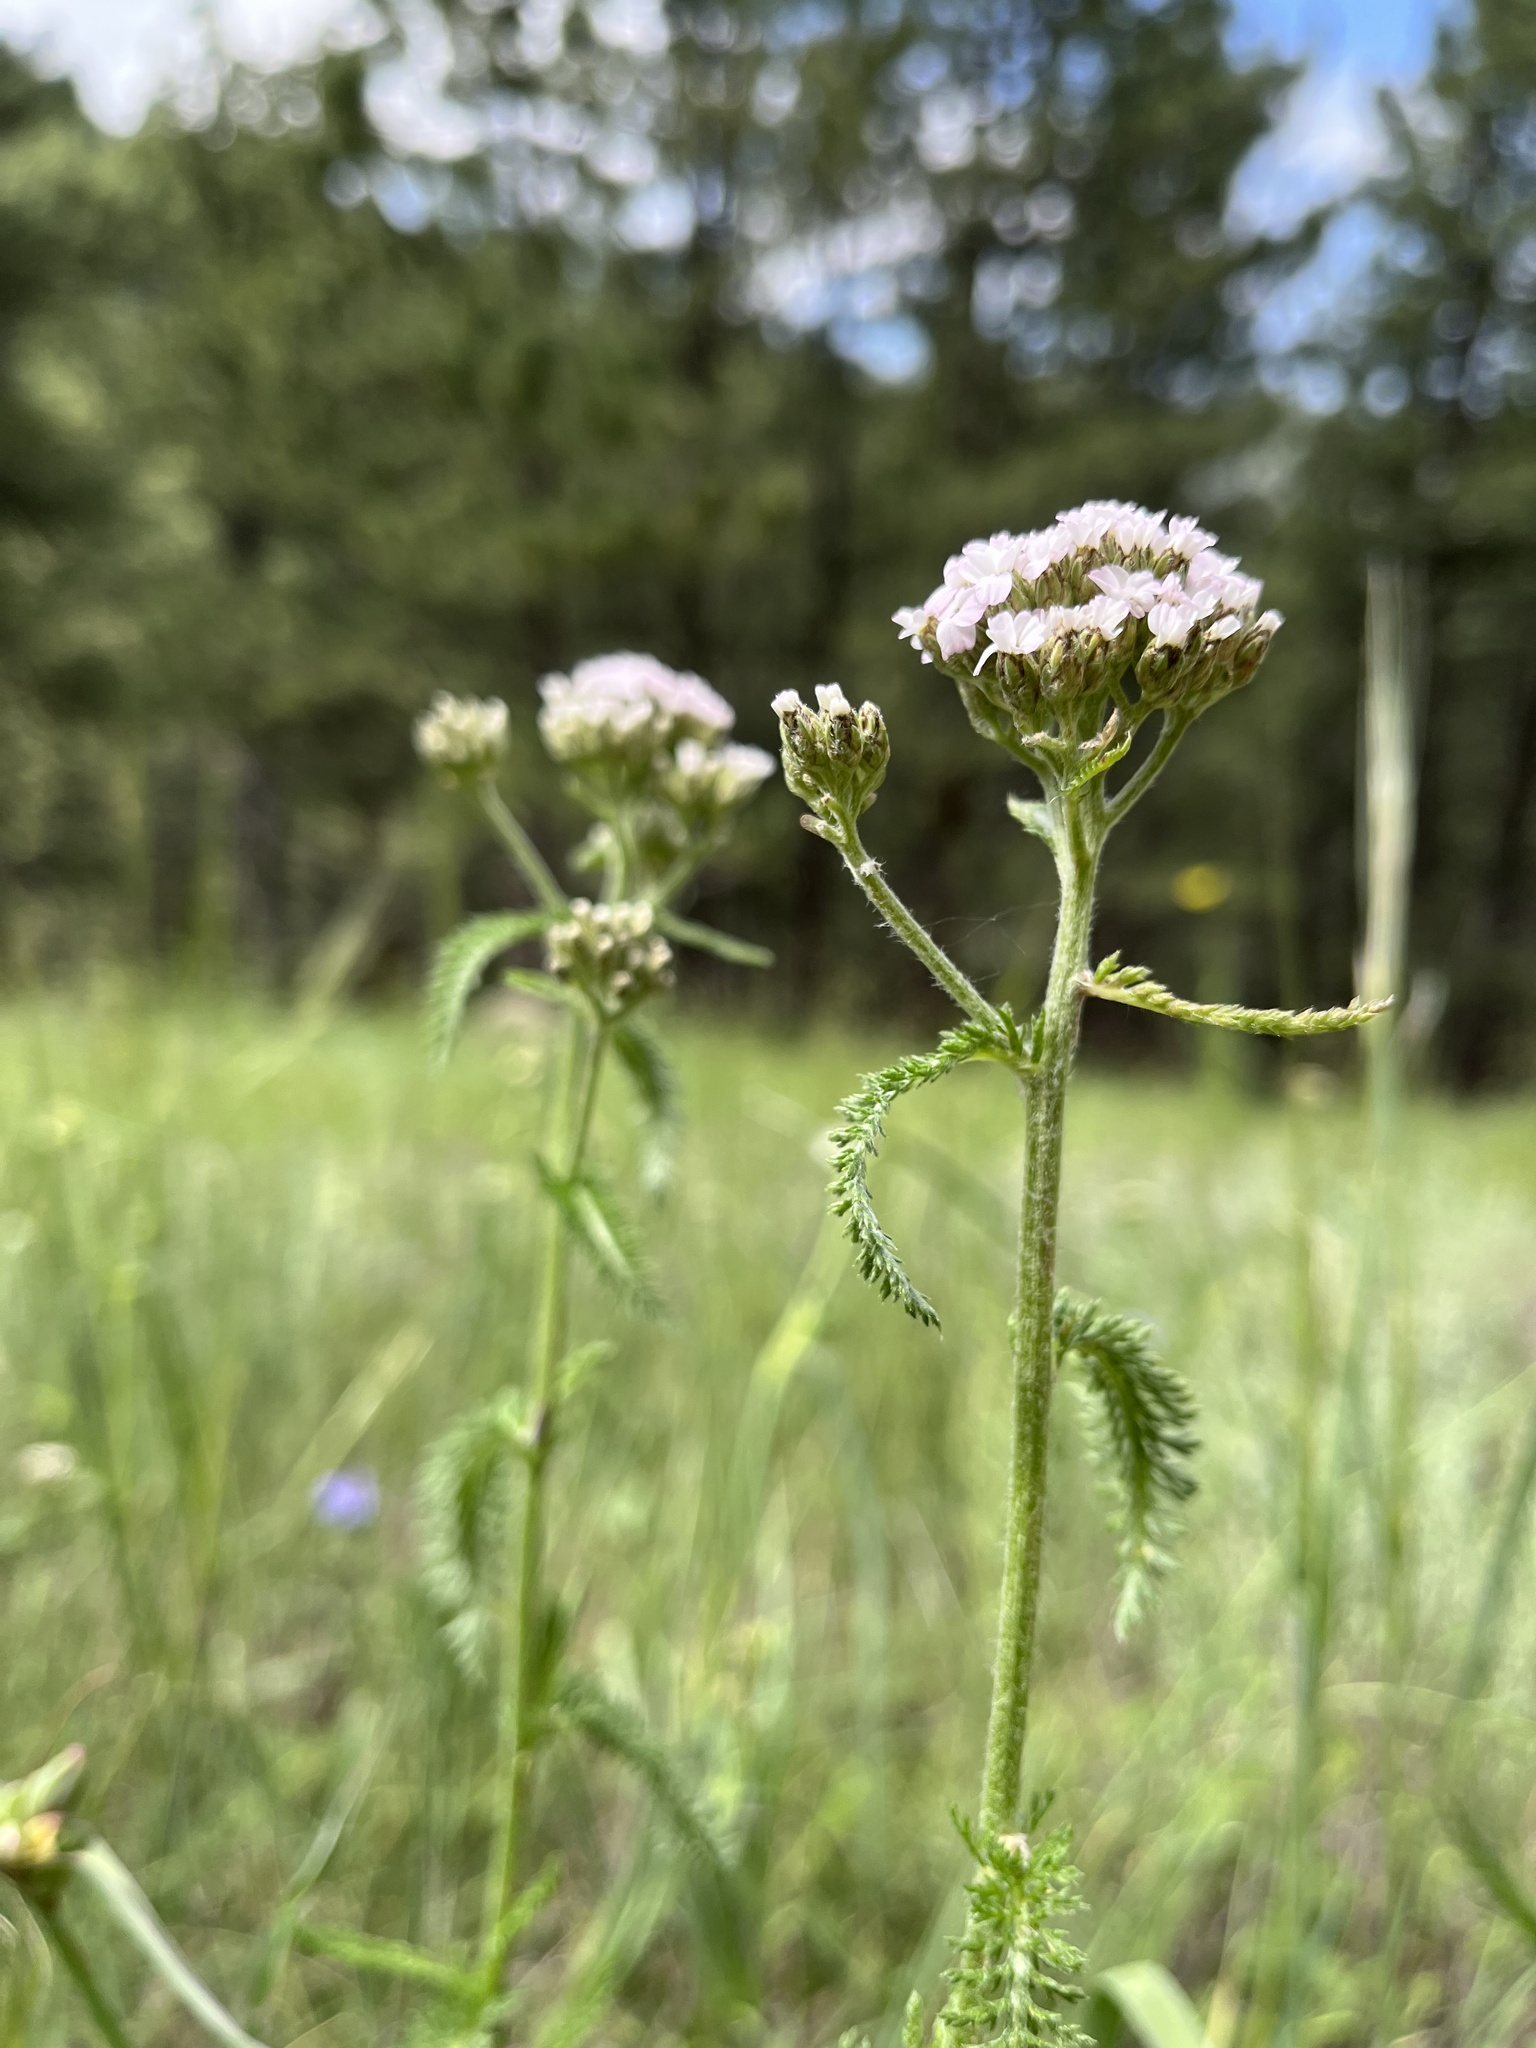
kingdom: Plantae
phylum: Tracheophyta
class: Magnoliopsida
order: Asterales
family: Asteraceae
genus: Achillea
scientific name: Achillea millefolium
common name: Yarrow
